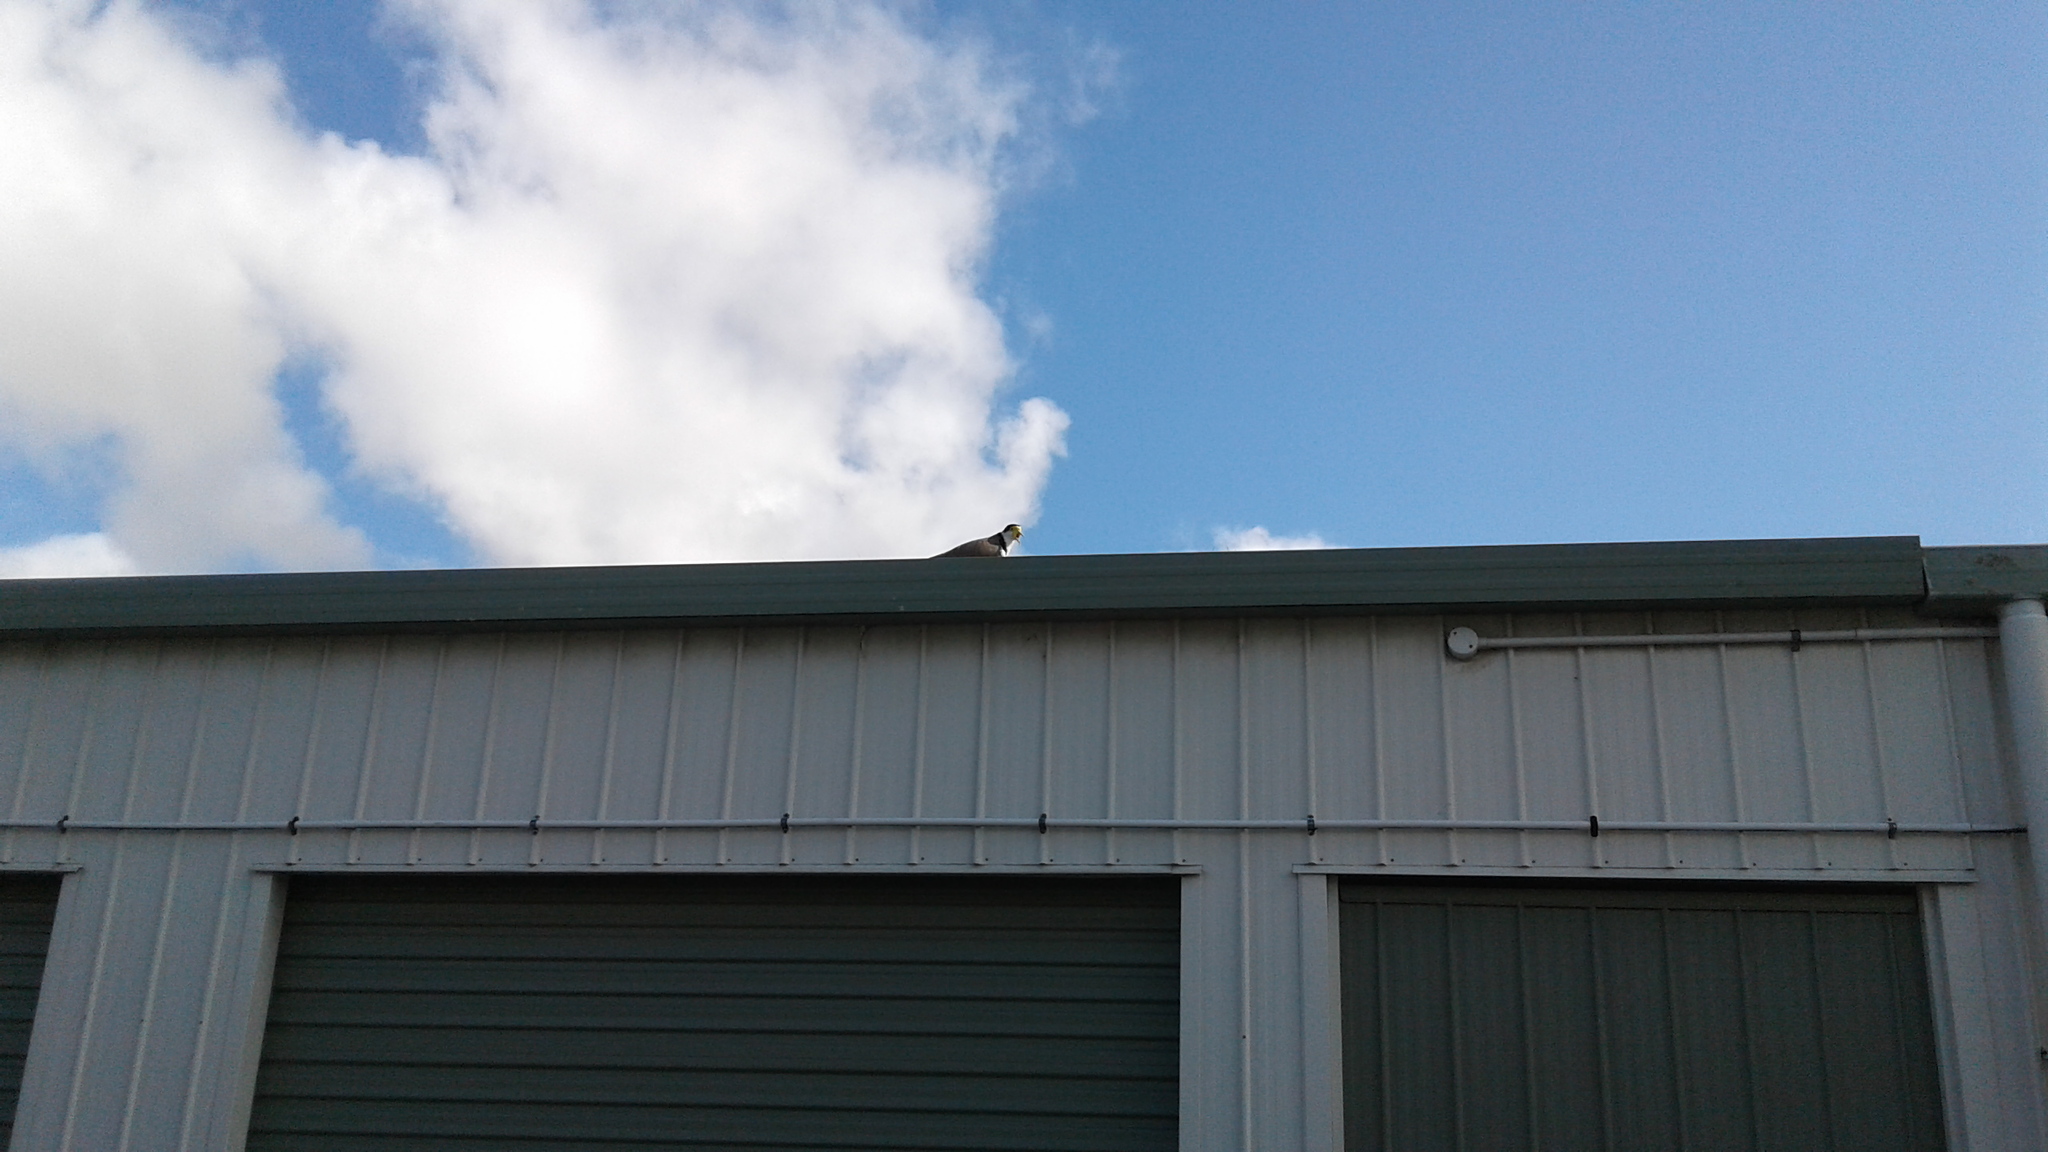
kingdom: Animalia
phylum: Chordata
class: Aves
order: Charadriiformes
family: Charadriidae
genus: Vanellus
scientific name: Vanellus miles
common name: Masked lapwing
